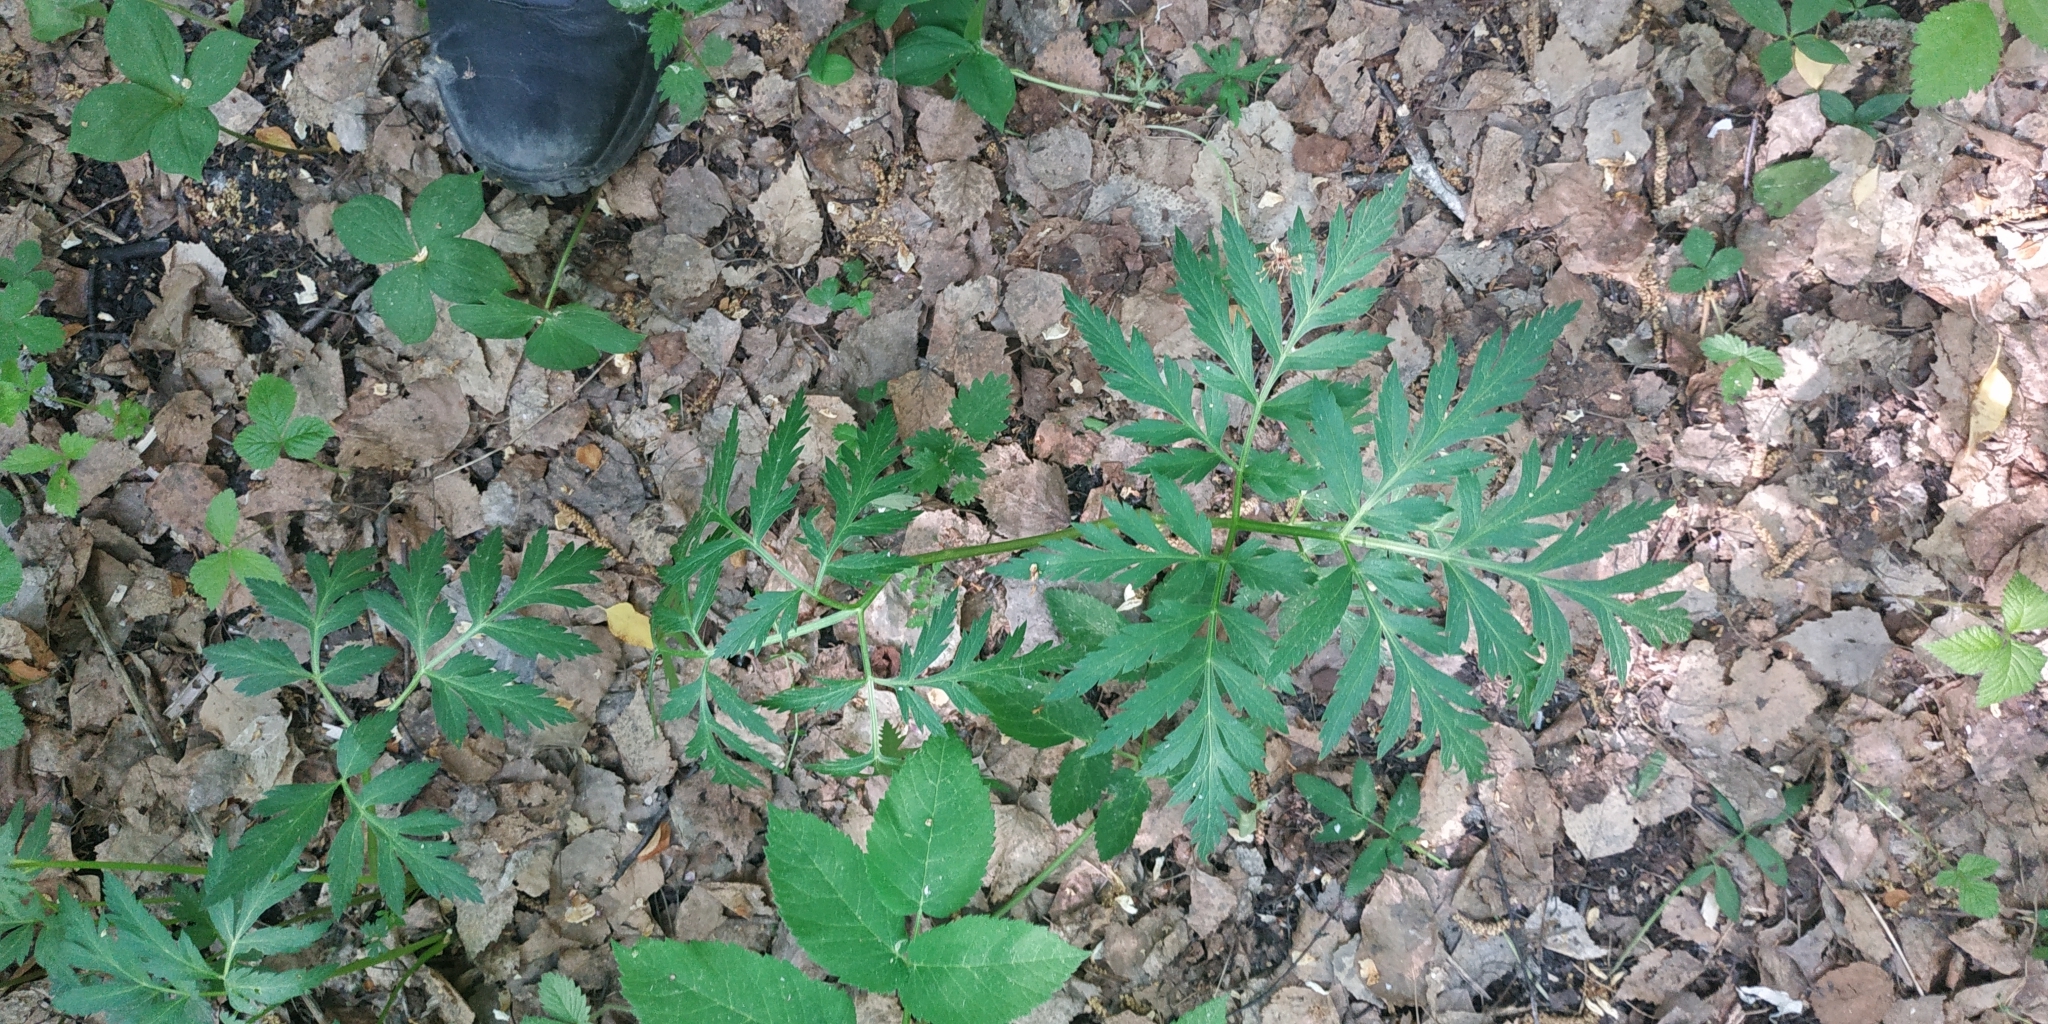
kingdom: Plantae
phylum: Tracheophyta
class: Magnoliopsida
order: Apiales
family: Apiaceae
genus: Pleurospermum
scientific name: Pleurospermum uralense
